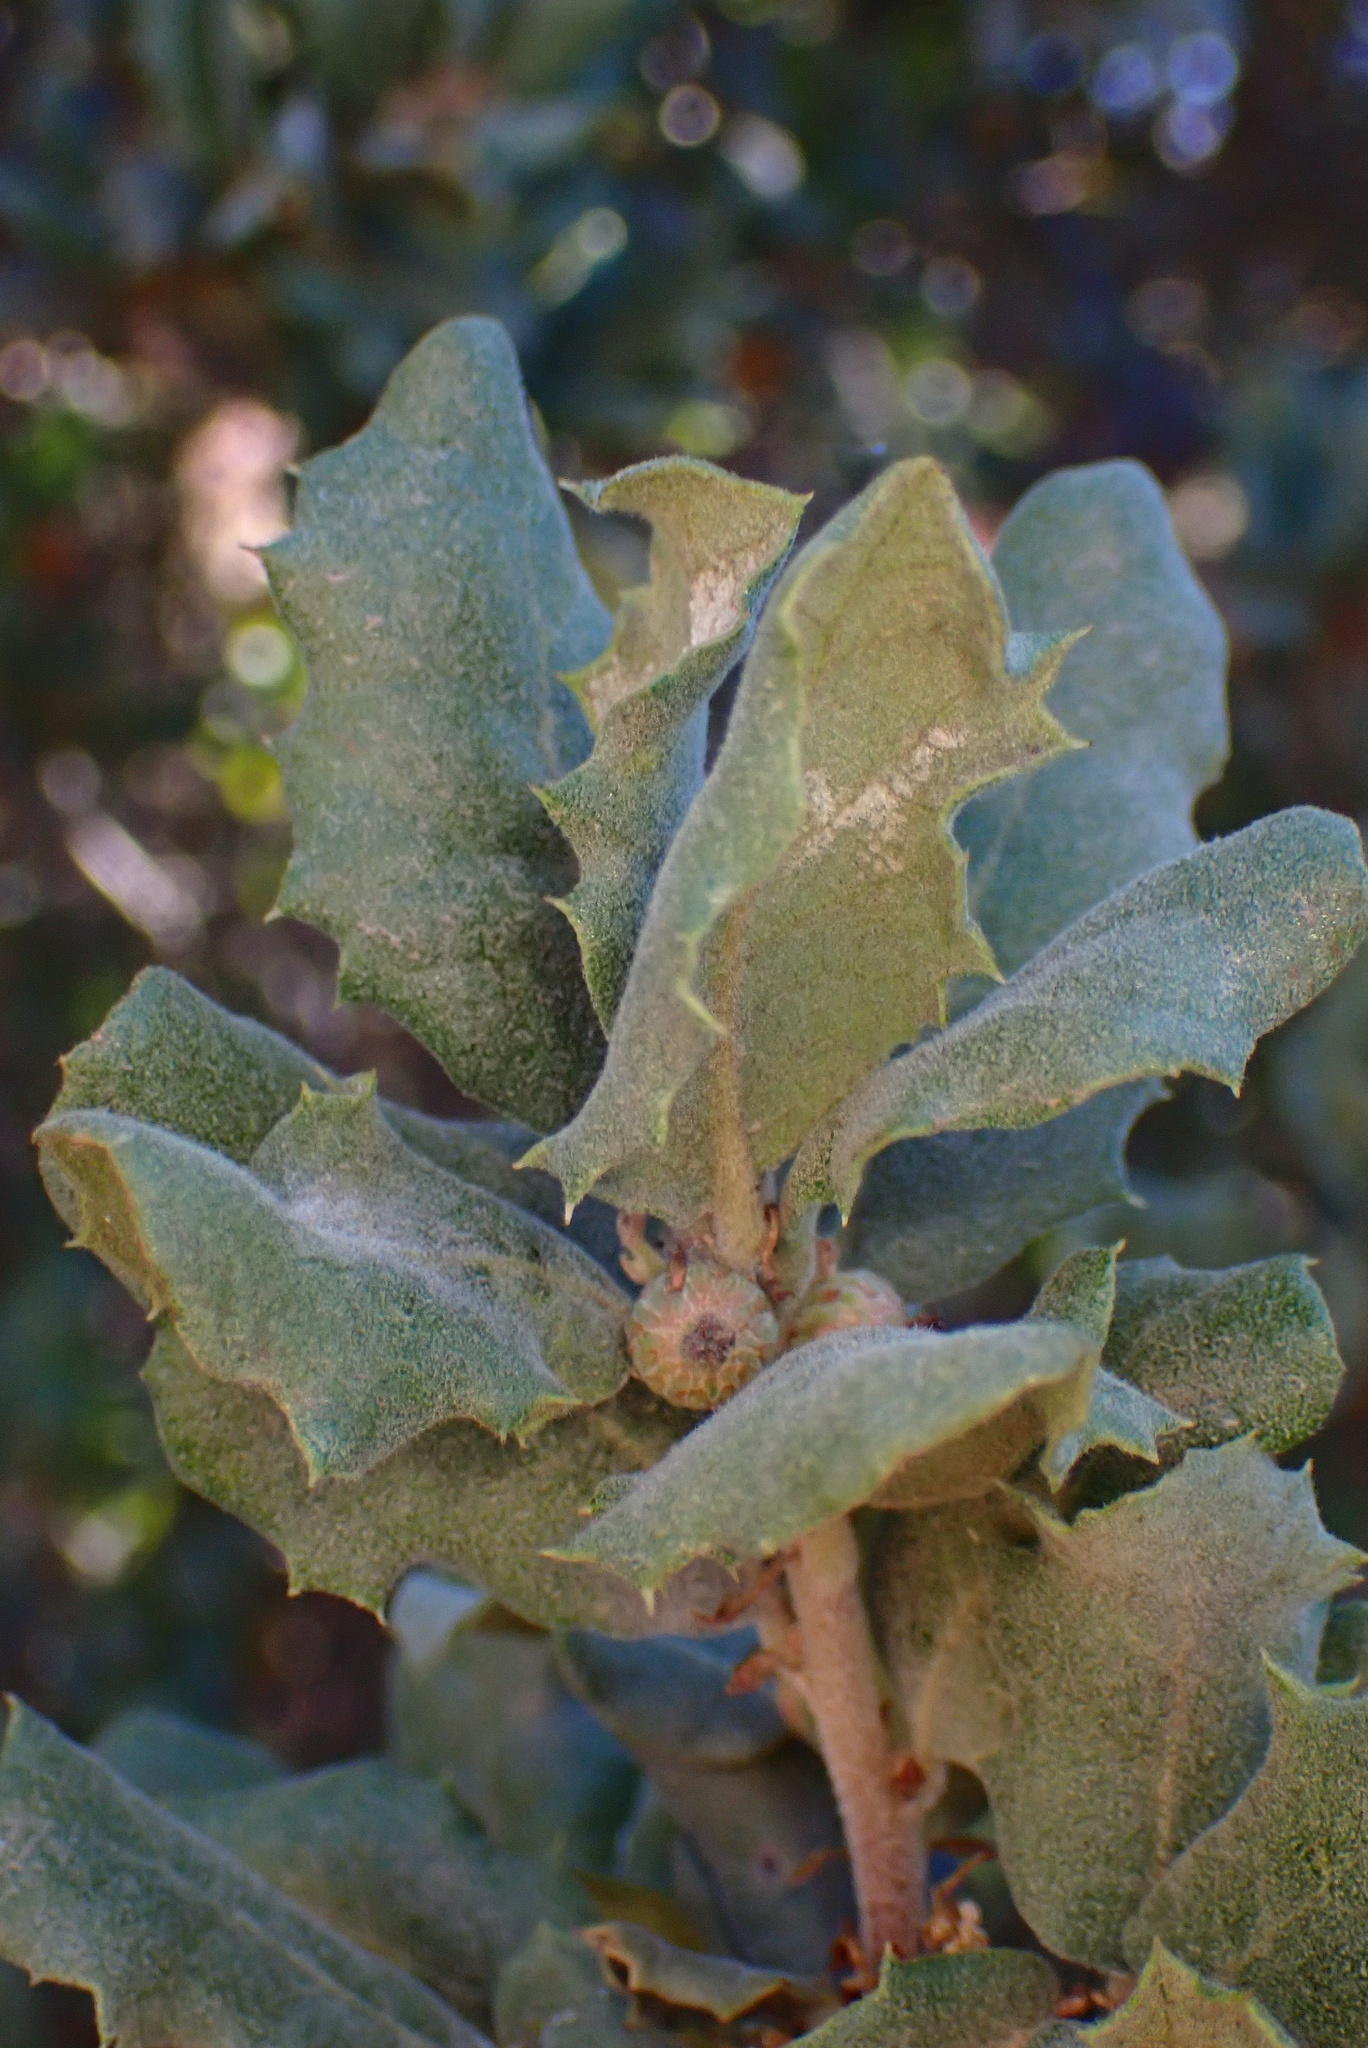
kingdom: Plantae
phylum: Tracheophyta
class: Magnoliopsida
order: Fagales
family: Fagaceae
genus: Quercus
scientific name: Quercus durata
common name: Leather oak
